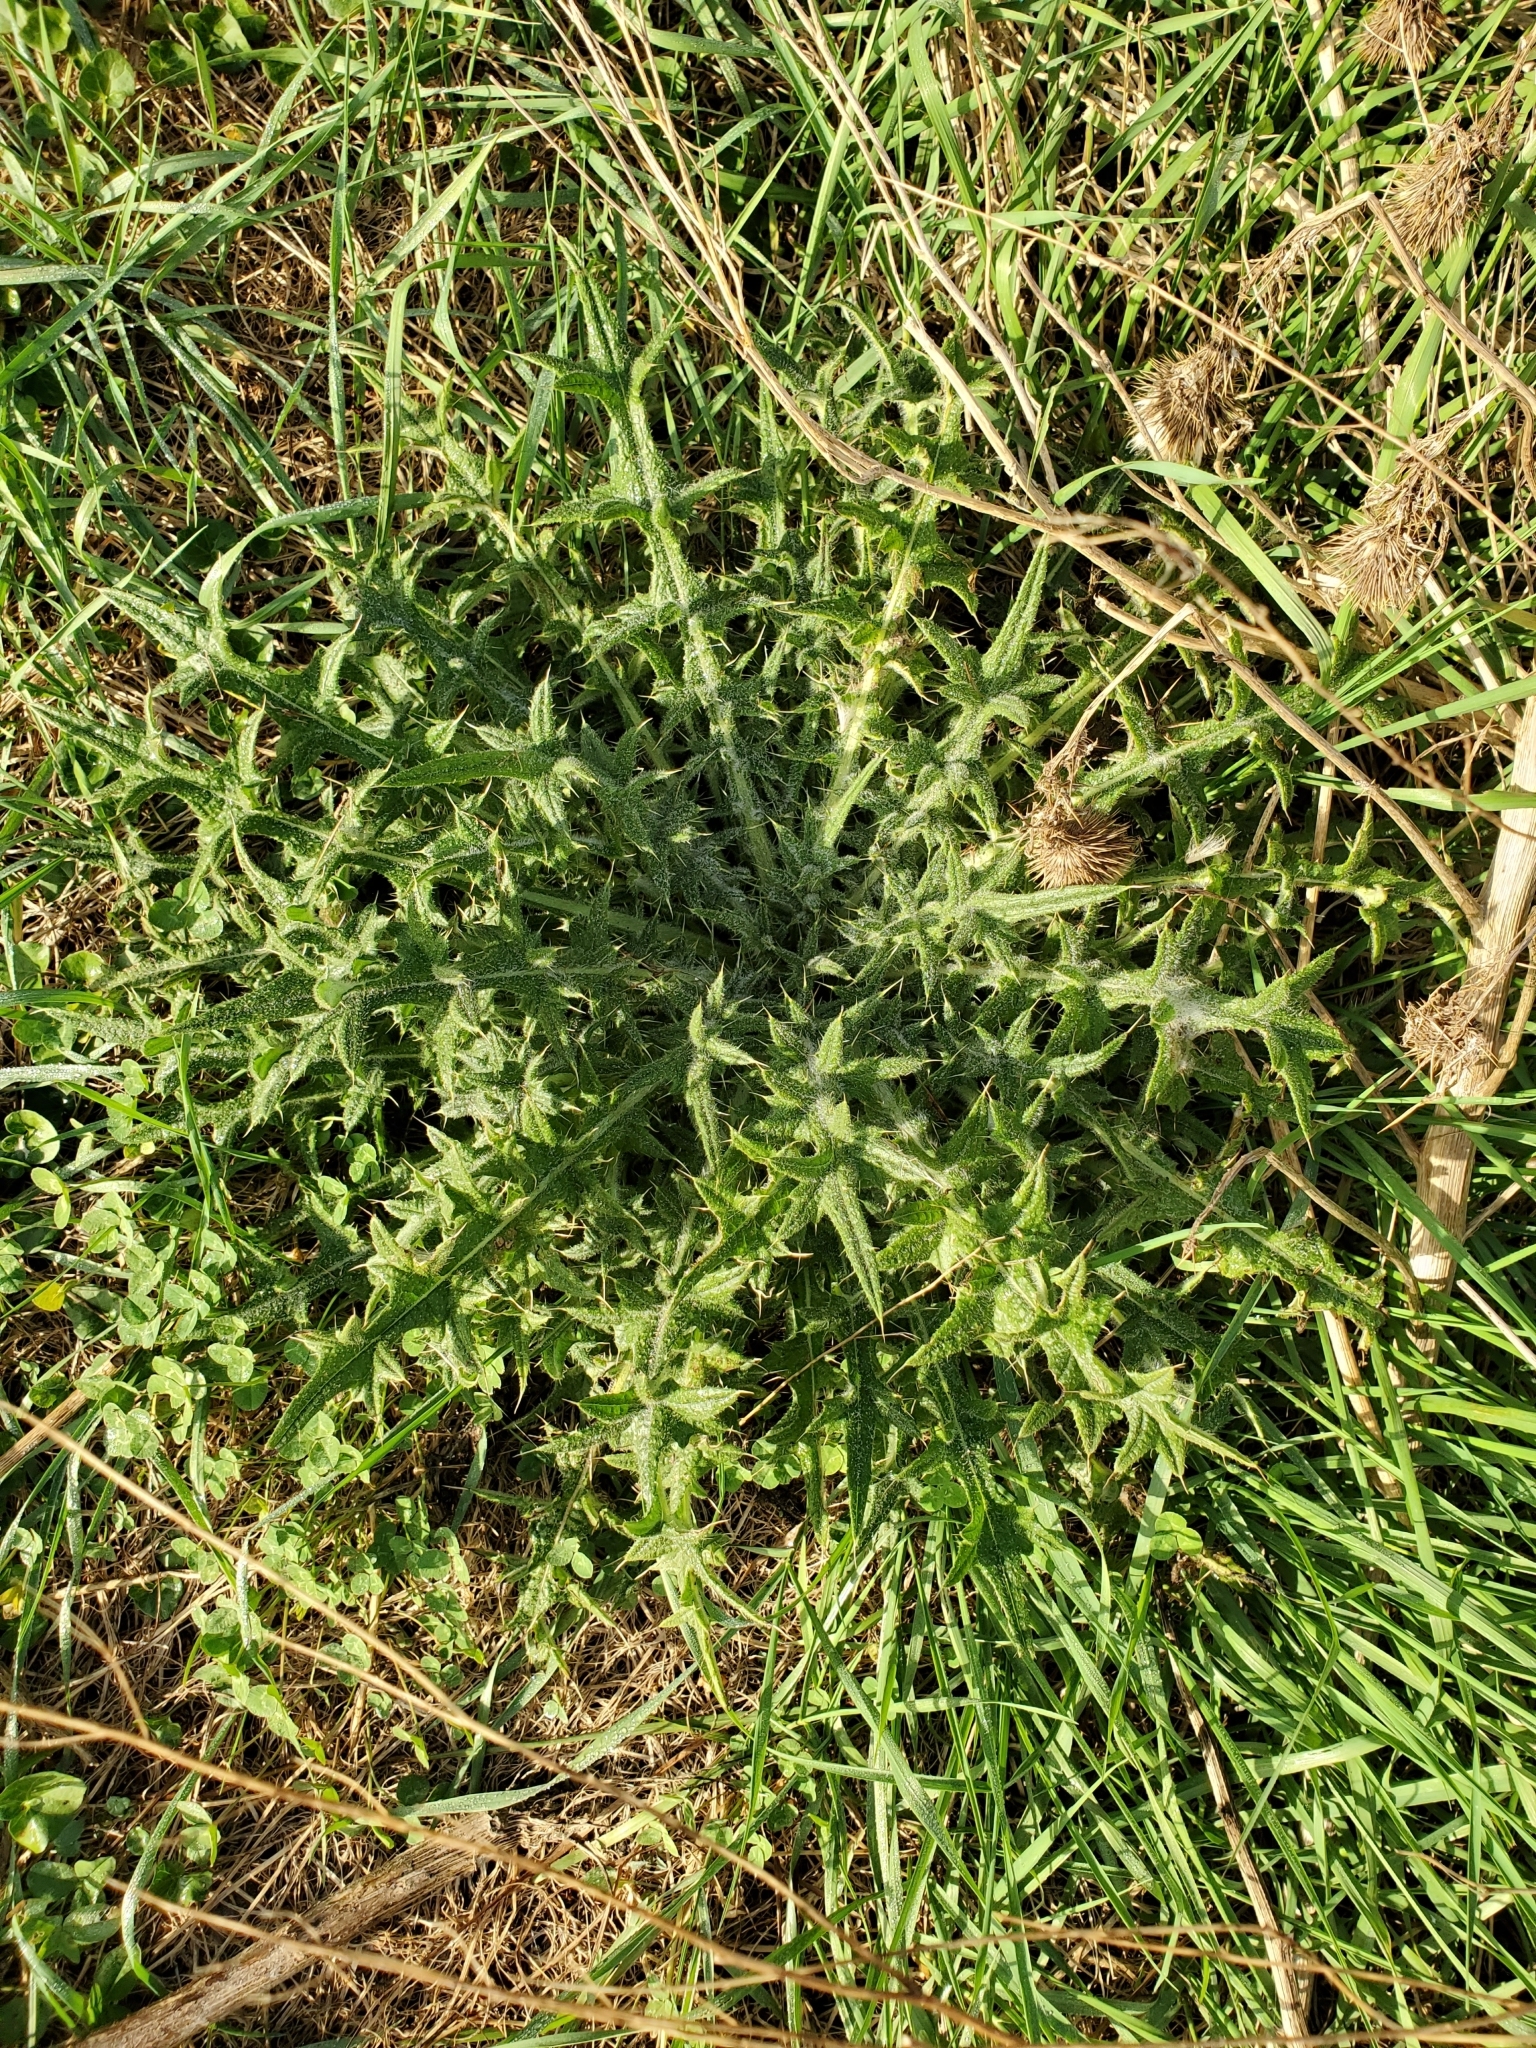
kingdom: Plantae
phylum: Tracheophyta
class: Magnoliopsida
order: Asterales
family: Asteraceae
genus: Cirsium
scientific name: Cirsium vulgare
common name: Bull thistle
